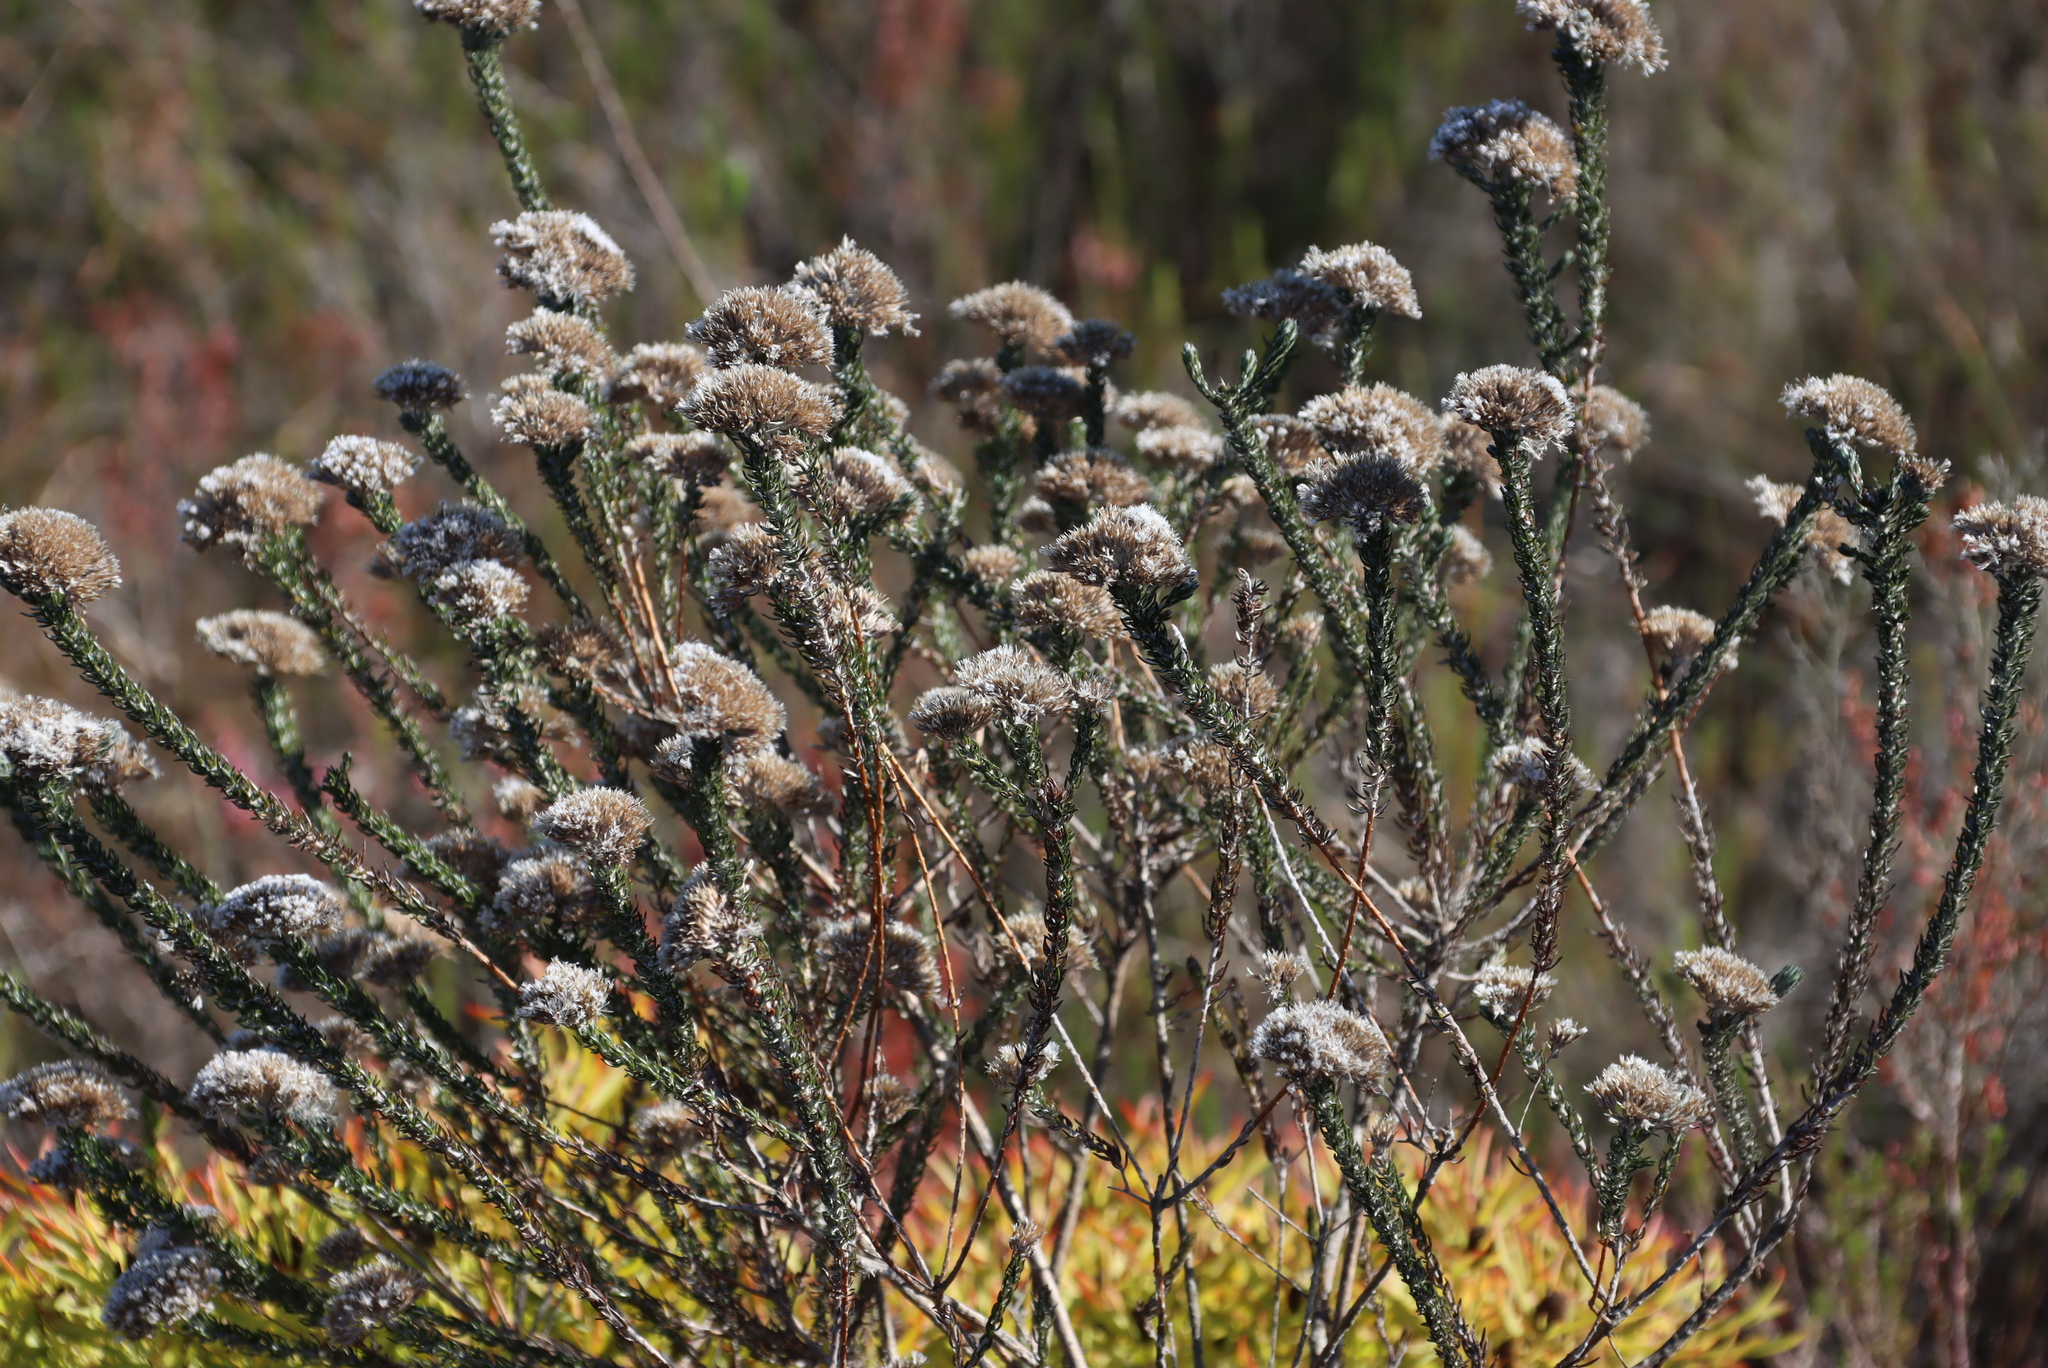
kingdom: Plantae
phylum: Tracheophyta
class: Magnoliopsida
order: Asterales
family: Asteraceae
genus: Metalasia
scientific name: Metalasia pungens
